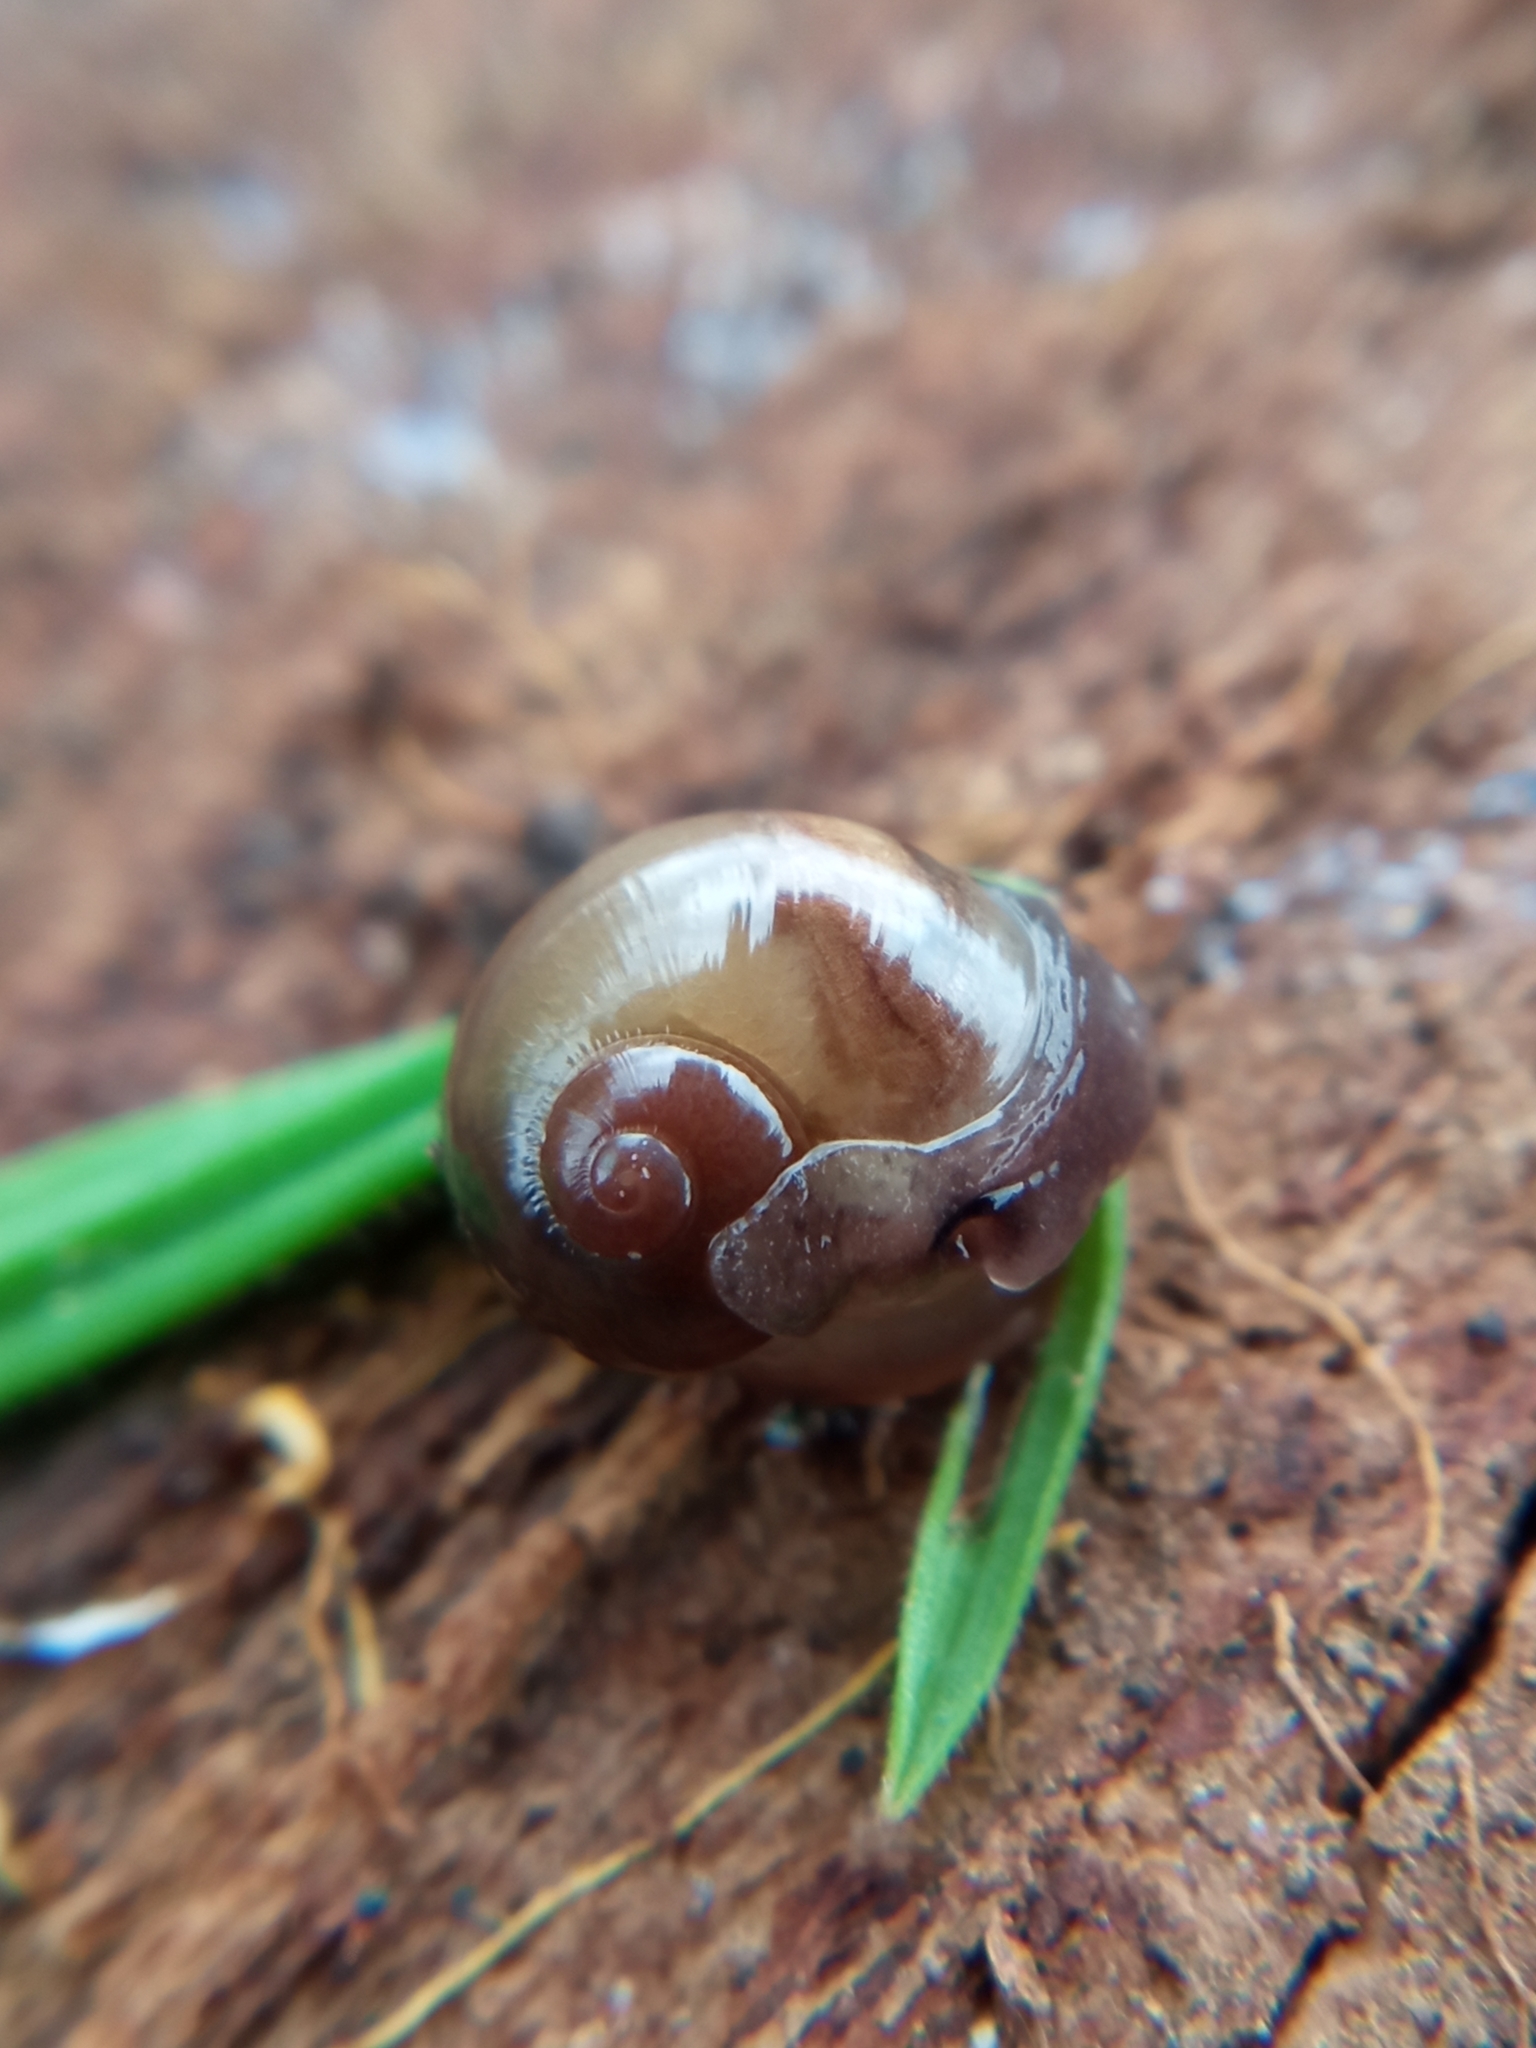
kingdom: Animalia
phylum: Mollusca
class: Gastropoda
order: Stylommatophora
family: Vitrinidae
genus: Vitrina
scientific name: Vitrina pellucida
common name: Pellucid glass snail
